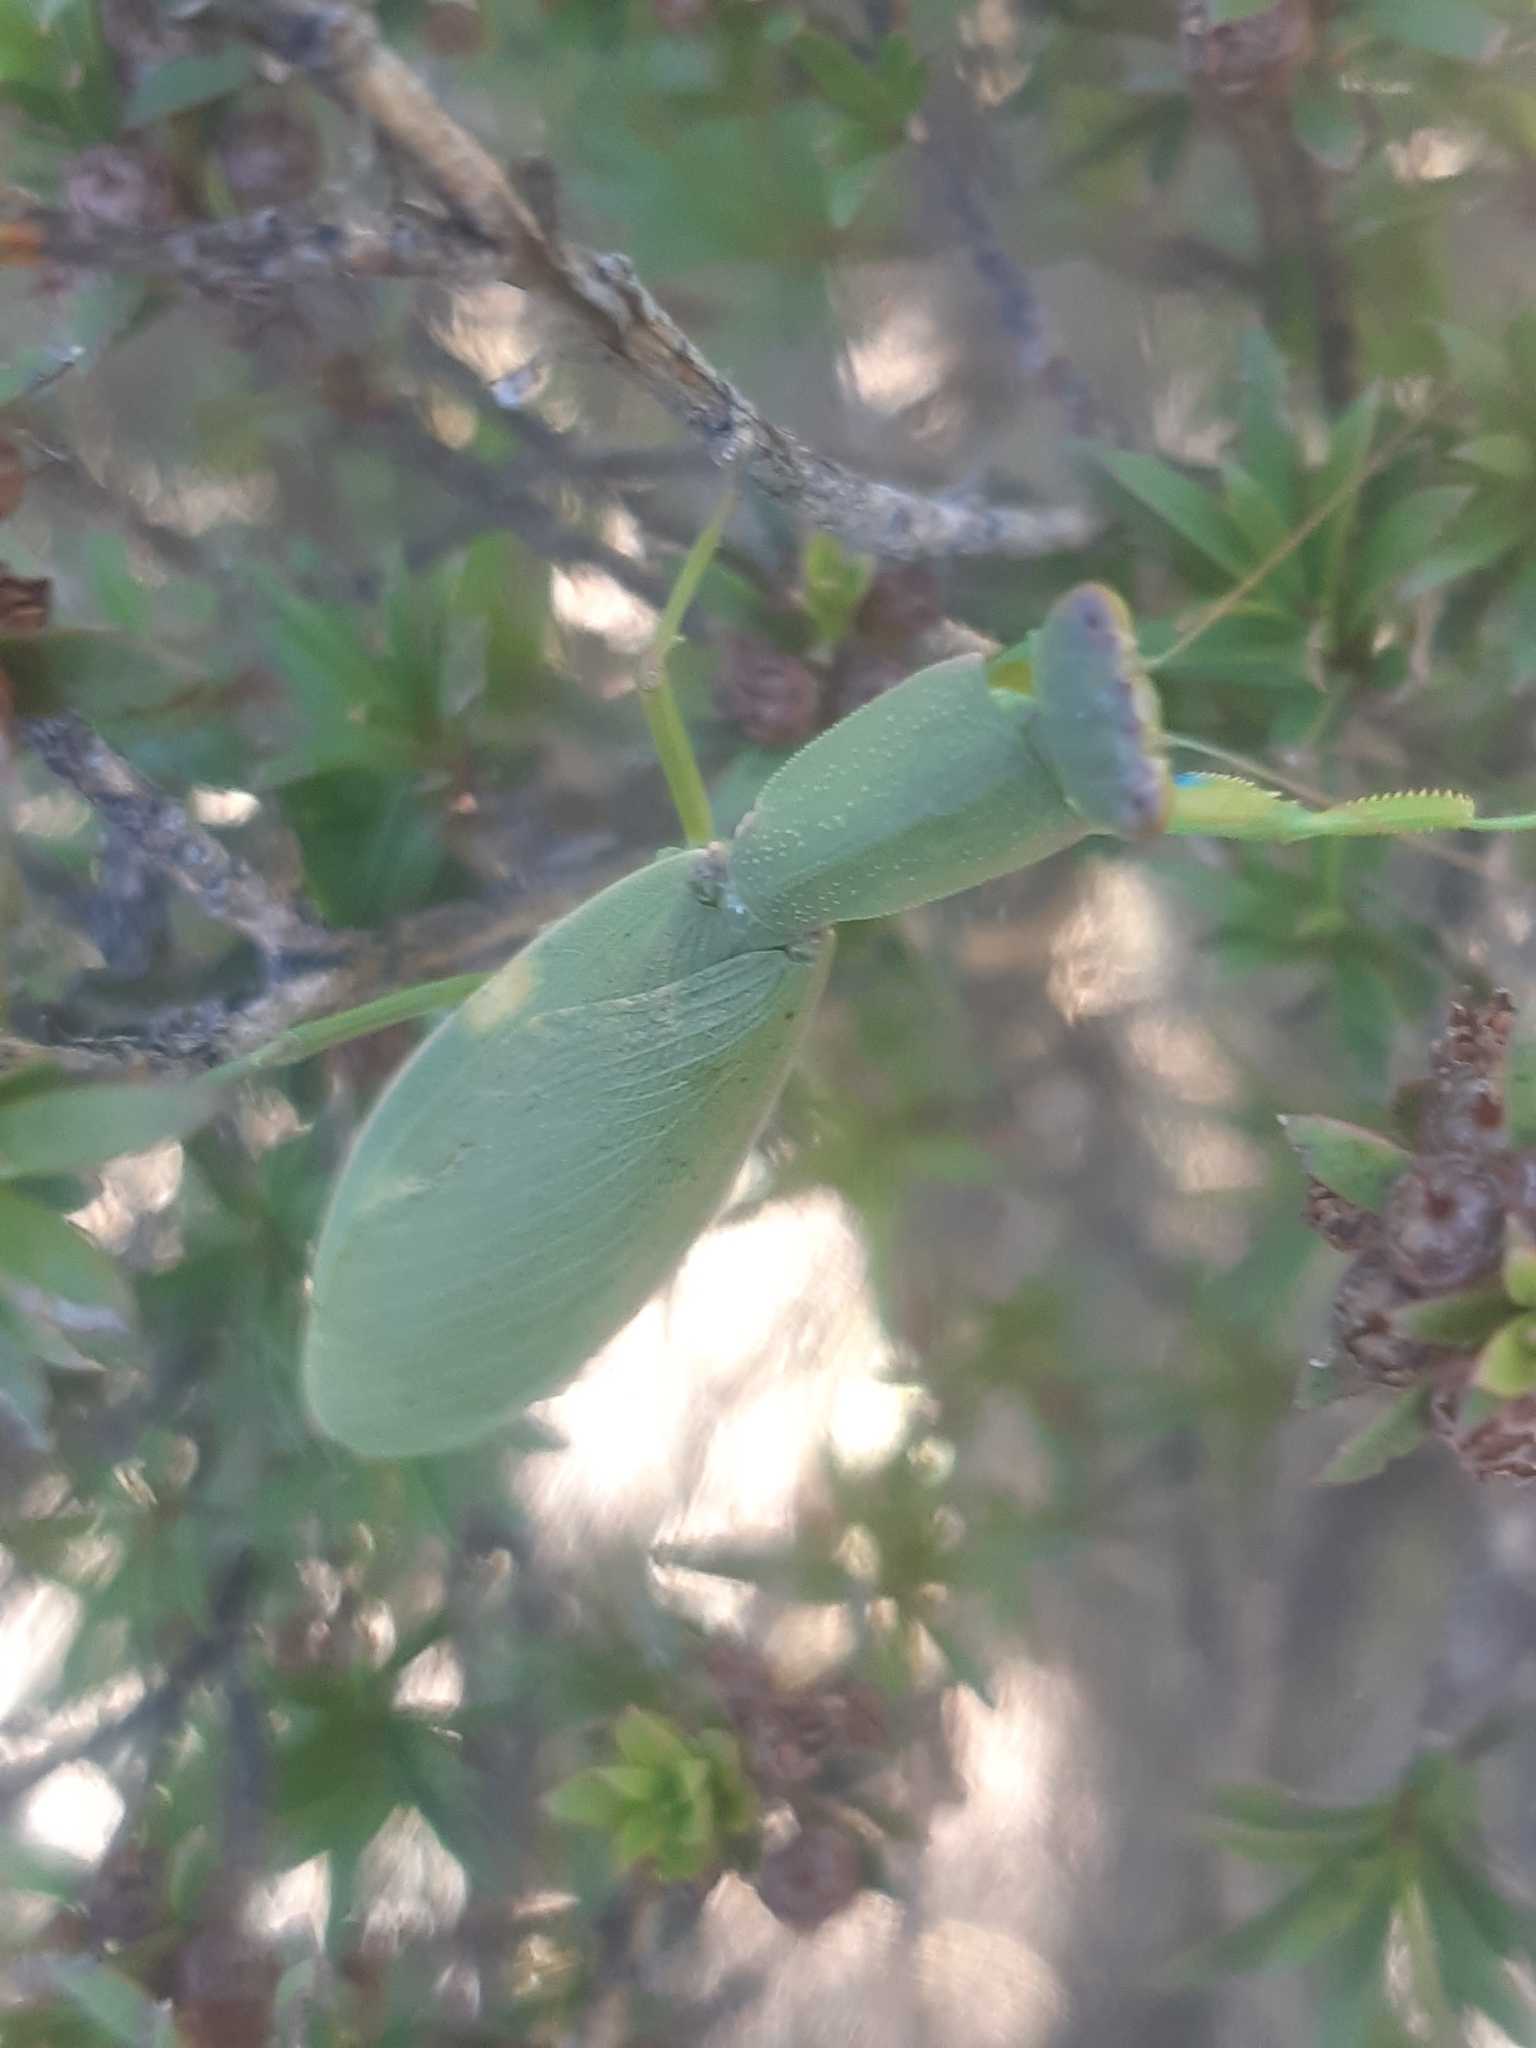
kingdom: Animalia
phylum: Arthropoda
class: Insecta
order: Mantodea
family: Mantidae
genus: Orthodera
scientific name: Orthodera novaezealandiae
